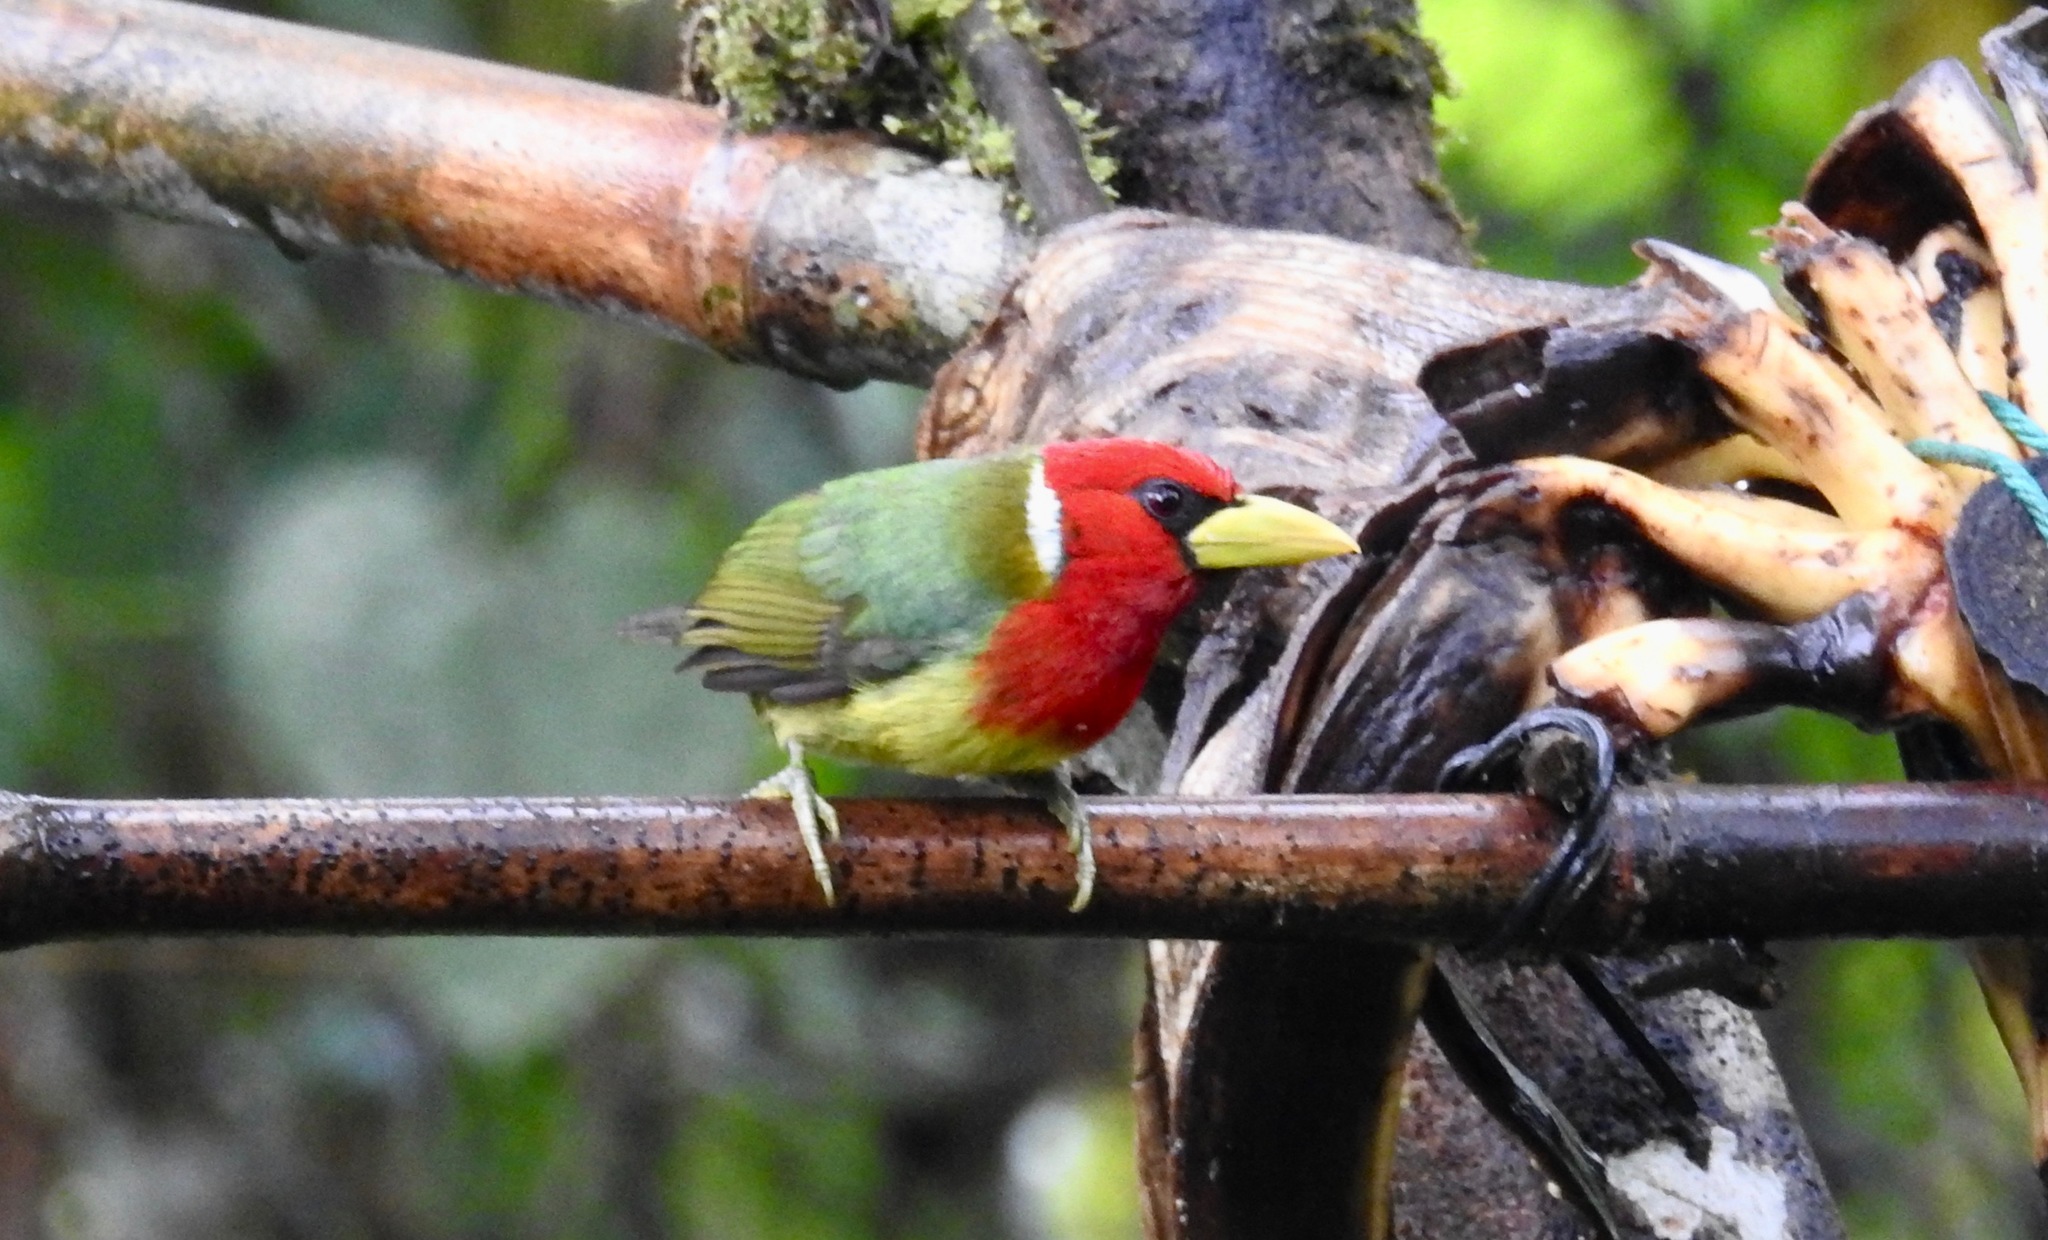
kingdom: Animalia
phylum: Chordata
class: Aves
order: Piciformes
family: Capitonidae
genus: Eubucco
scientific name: Eubucco bourcierii
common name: Red-headed barbet
